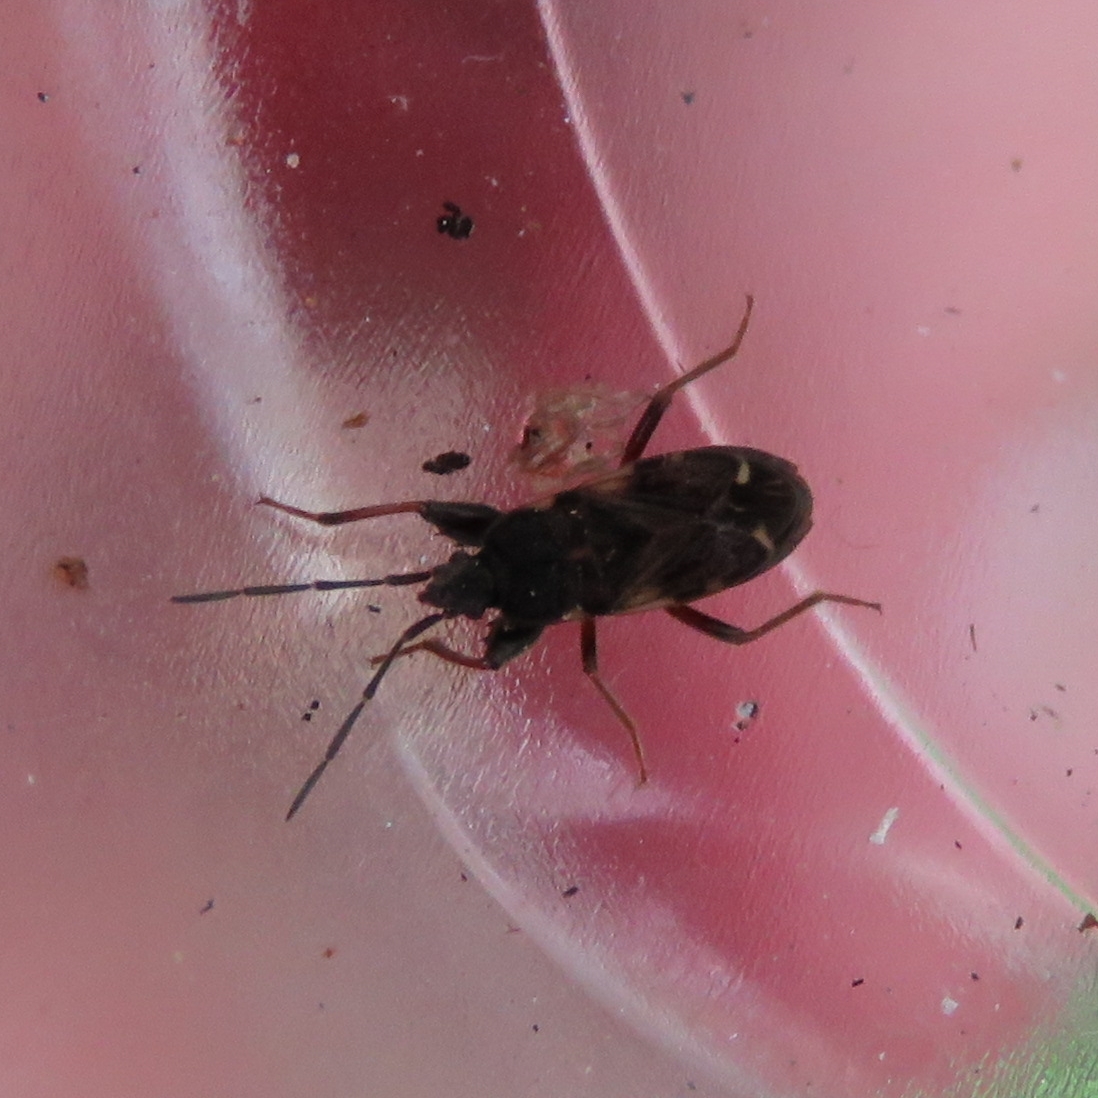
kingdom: Animalia
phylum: Arthropoda
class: Insecta
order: Hemiptera
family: Rhyparochromidae
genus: Eremocoris
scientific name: Eremocoris podagricus
